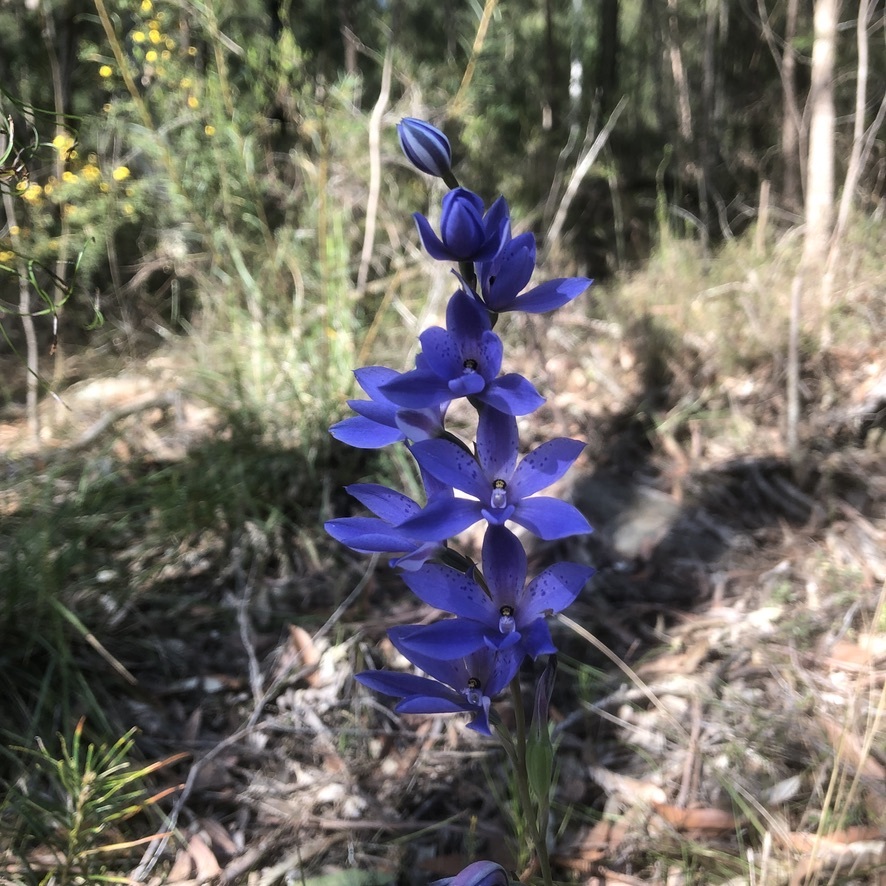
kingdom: Plantae
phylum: Tracheophyta
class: Liliopsida
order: Asparagales
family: Orchidaceae
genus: Thelymitra
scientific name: Thelymitra ixioides
